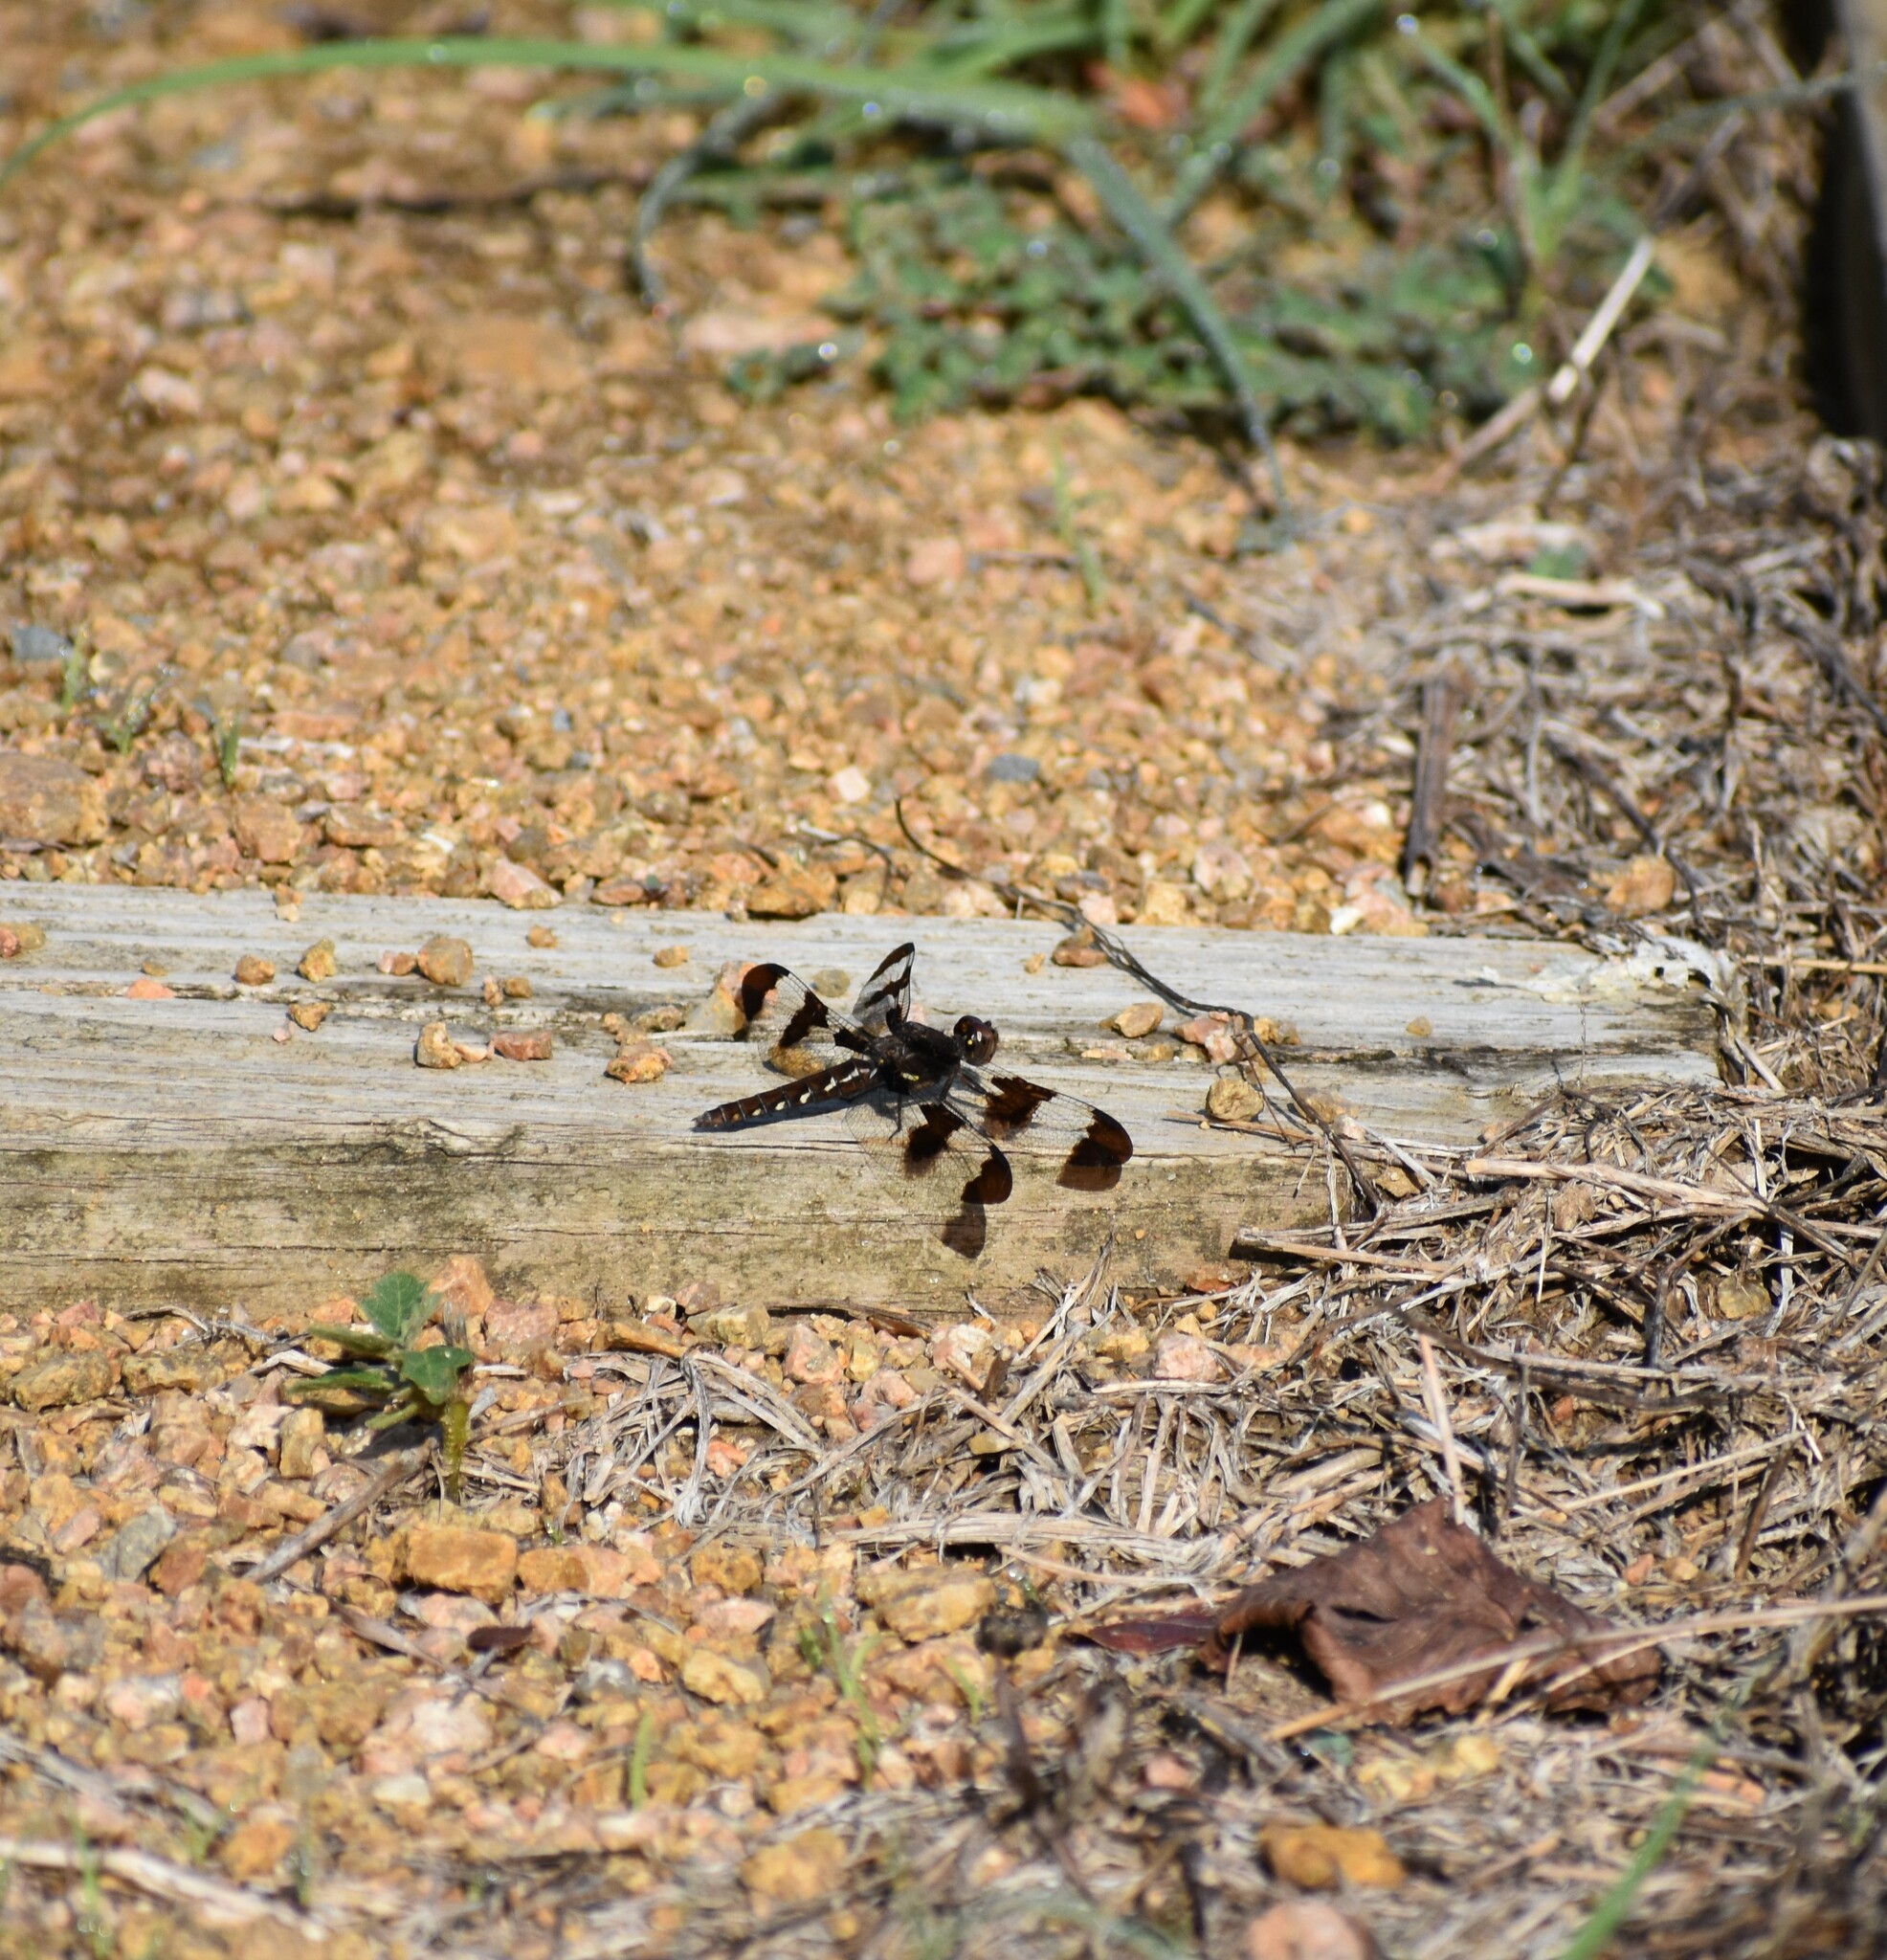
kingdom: Animalia
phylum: Arthropoda
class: Insecta
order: Odonata
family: Libellulidae
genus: Plathemis
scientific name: Plathemis lydia
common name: Common whitetail
